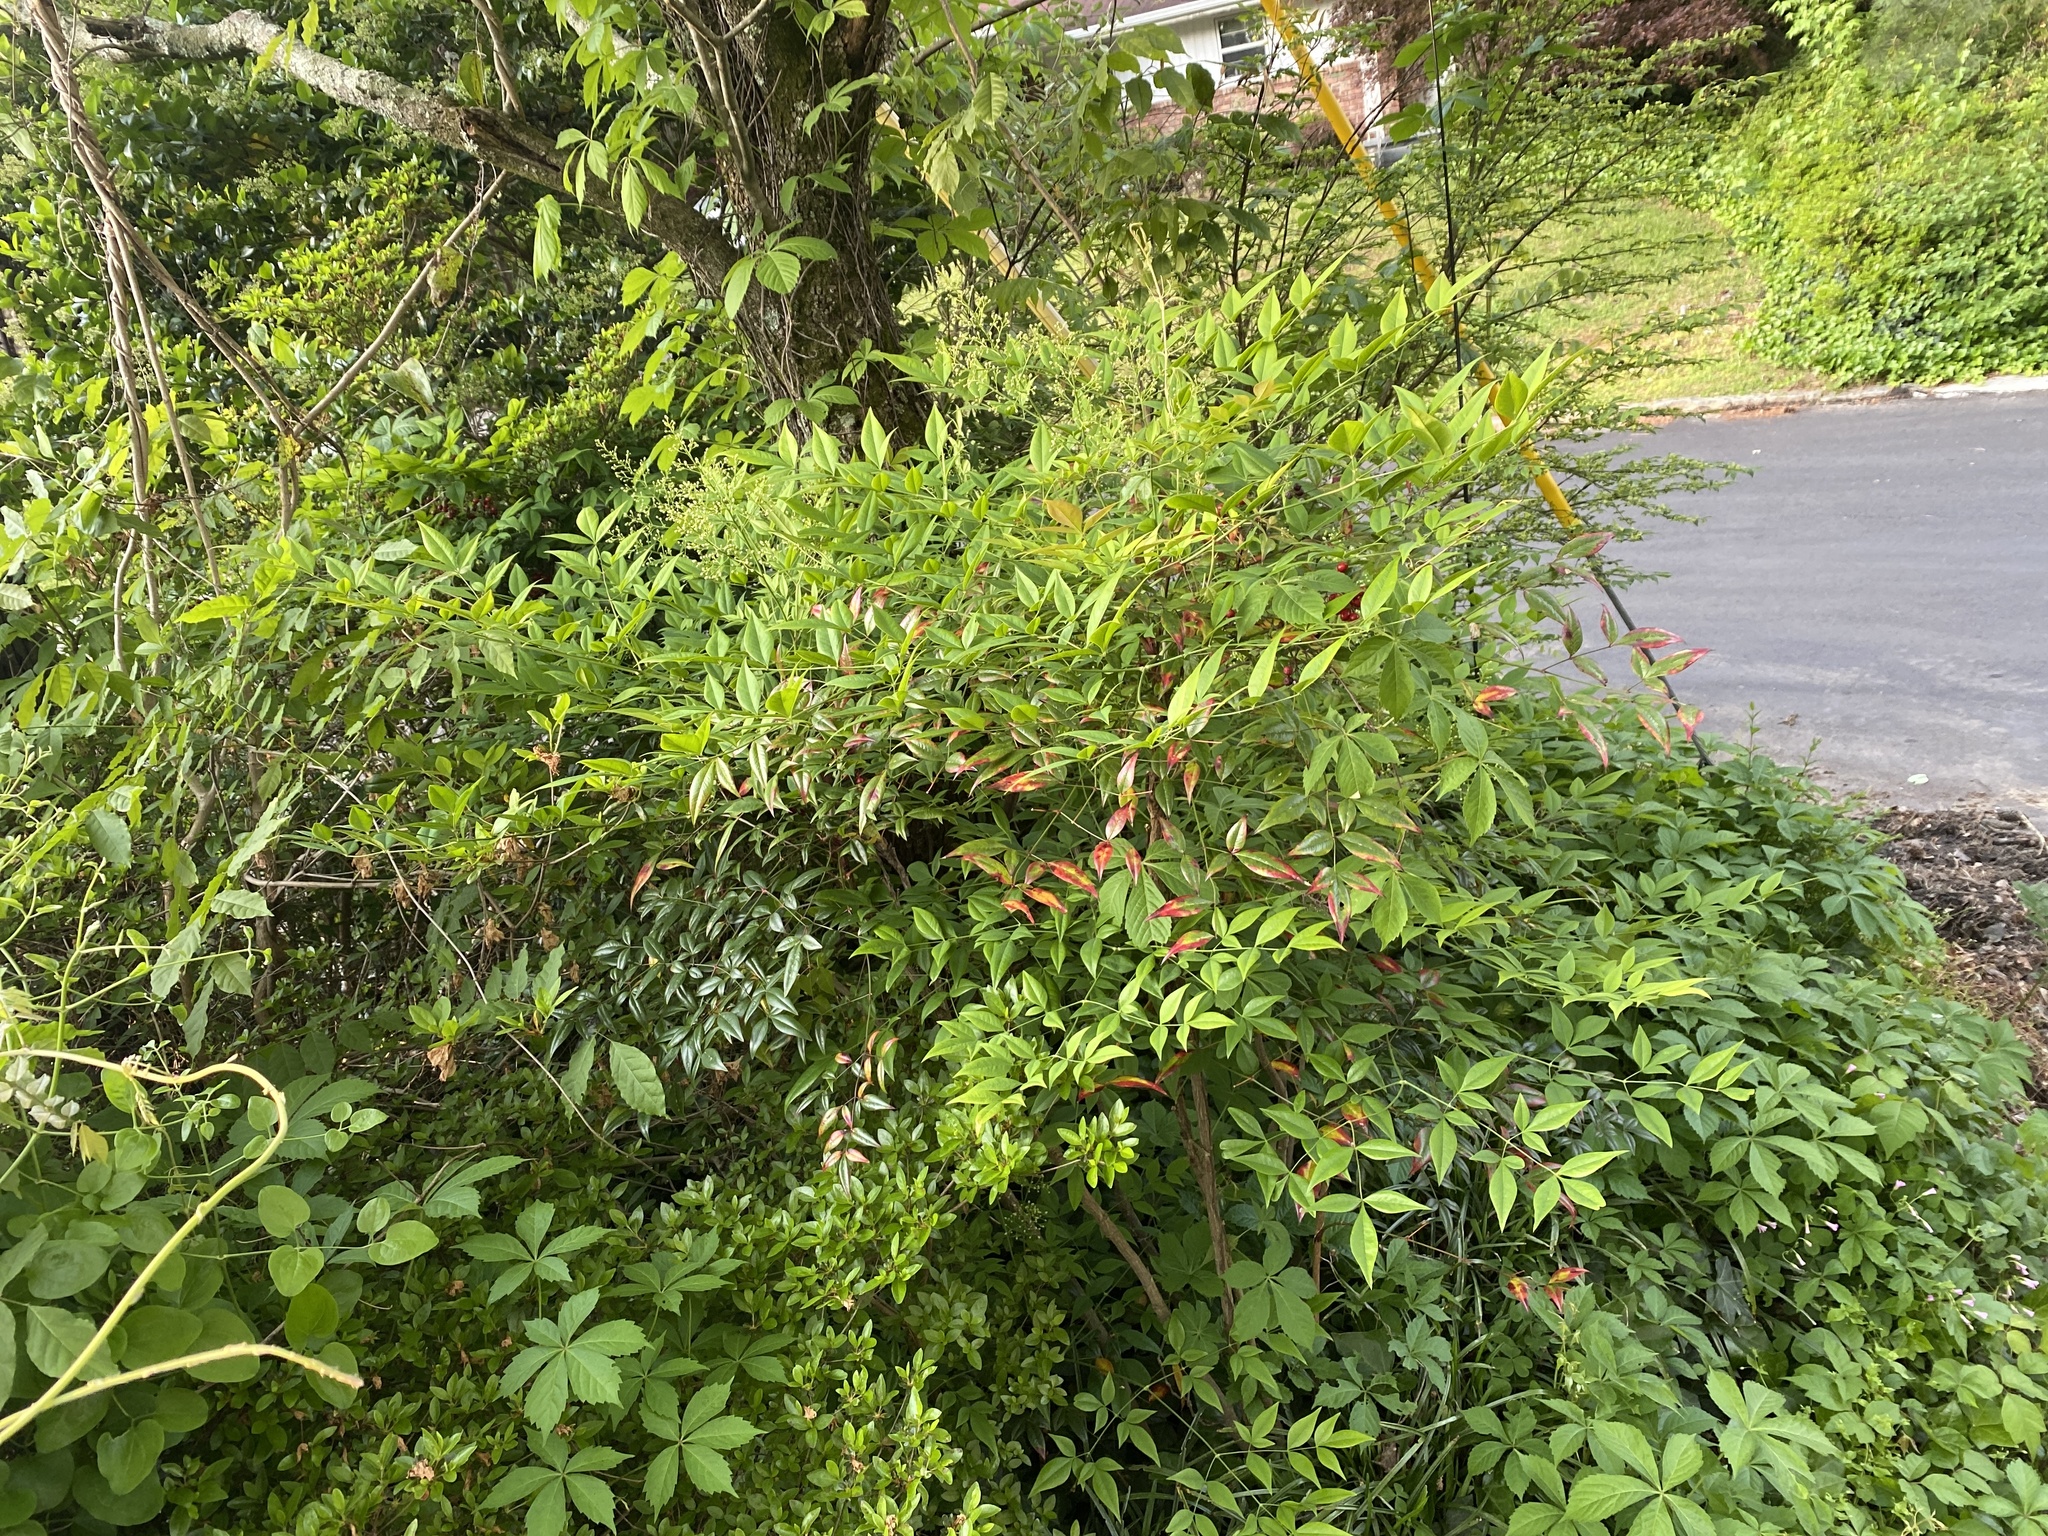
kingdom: Plantae
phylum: Tracheophyta
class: Magnoliopsida
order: Ranunculales
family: Berberidaceae
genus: Nandina
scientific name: Nandina domestica
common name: Sacred bamboo
